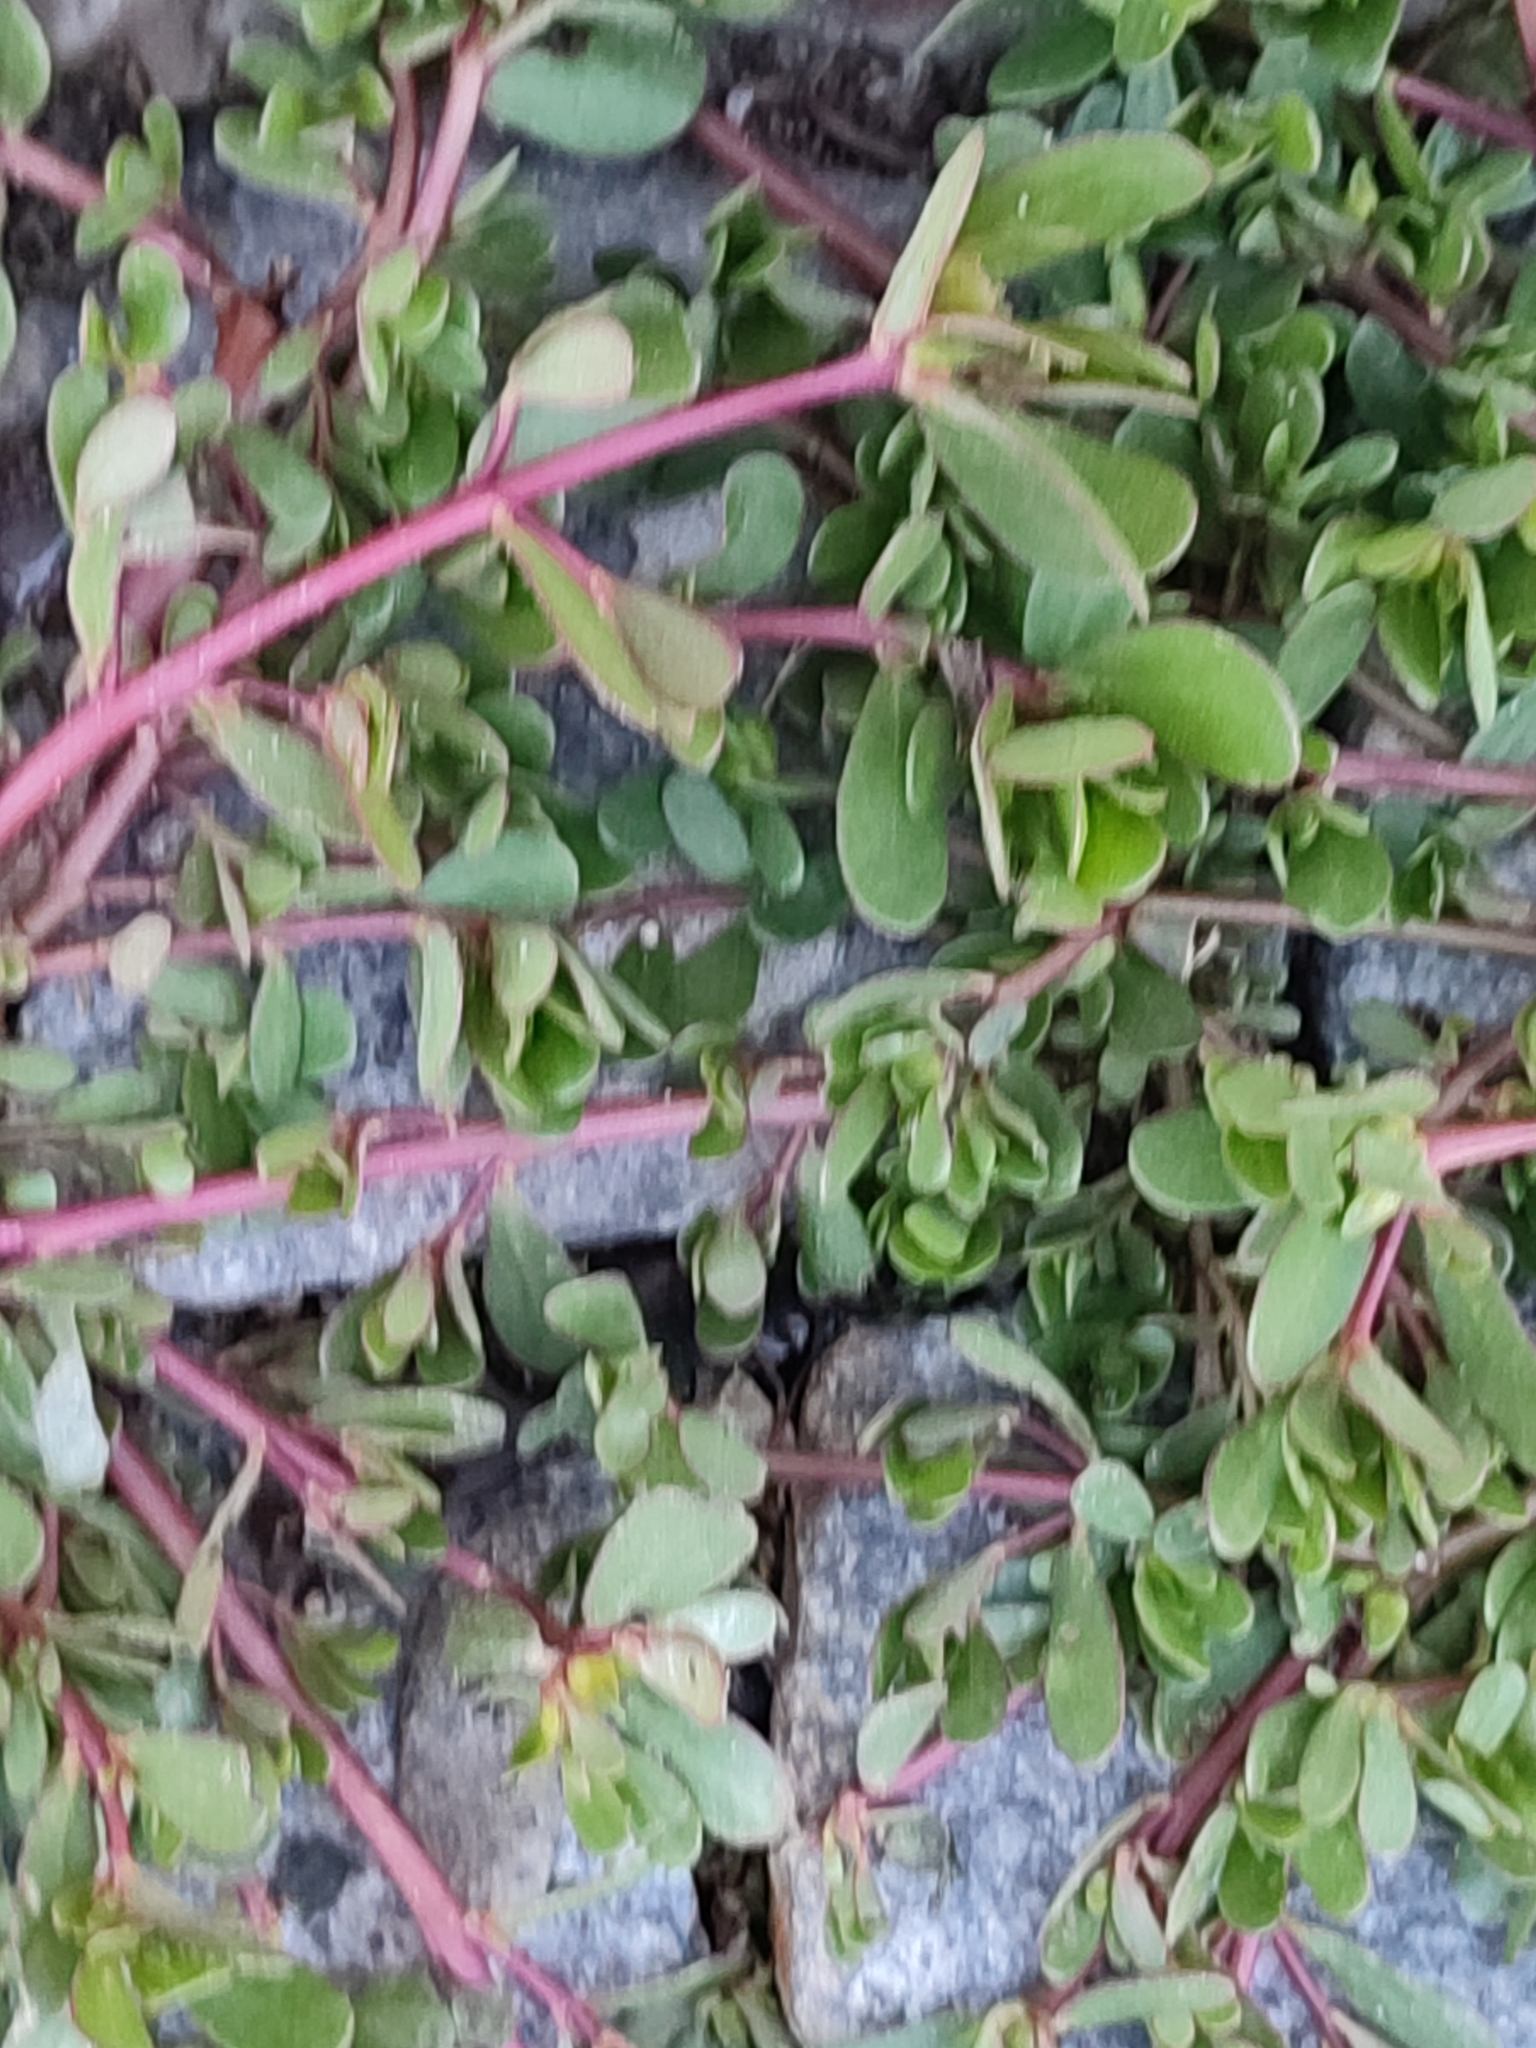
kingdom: Plantae
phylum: Tracheophyta
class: Magnoliopsida
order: Caryophyllales
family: Portulacaceae
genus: Portulaca
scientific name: Portulaca oleracea
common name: Common purslane
